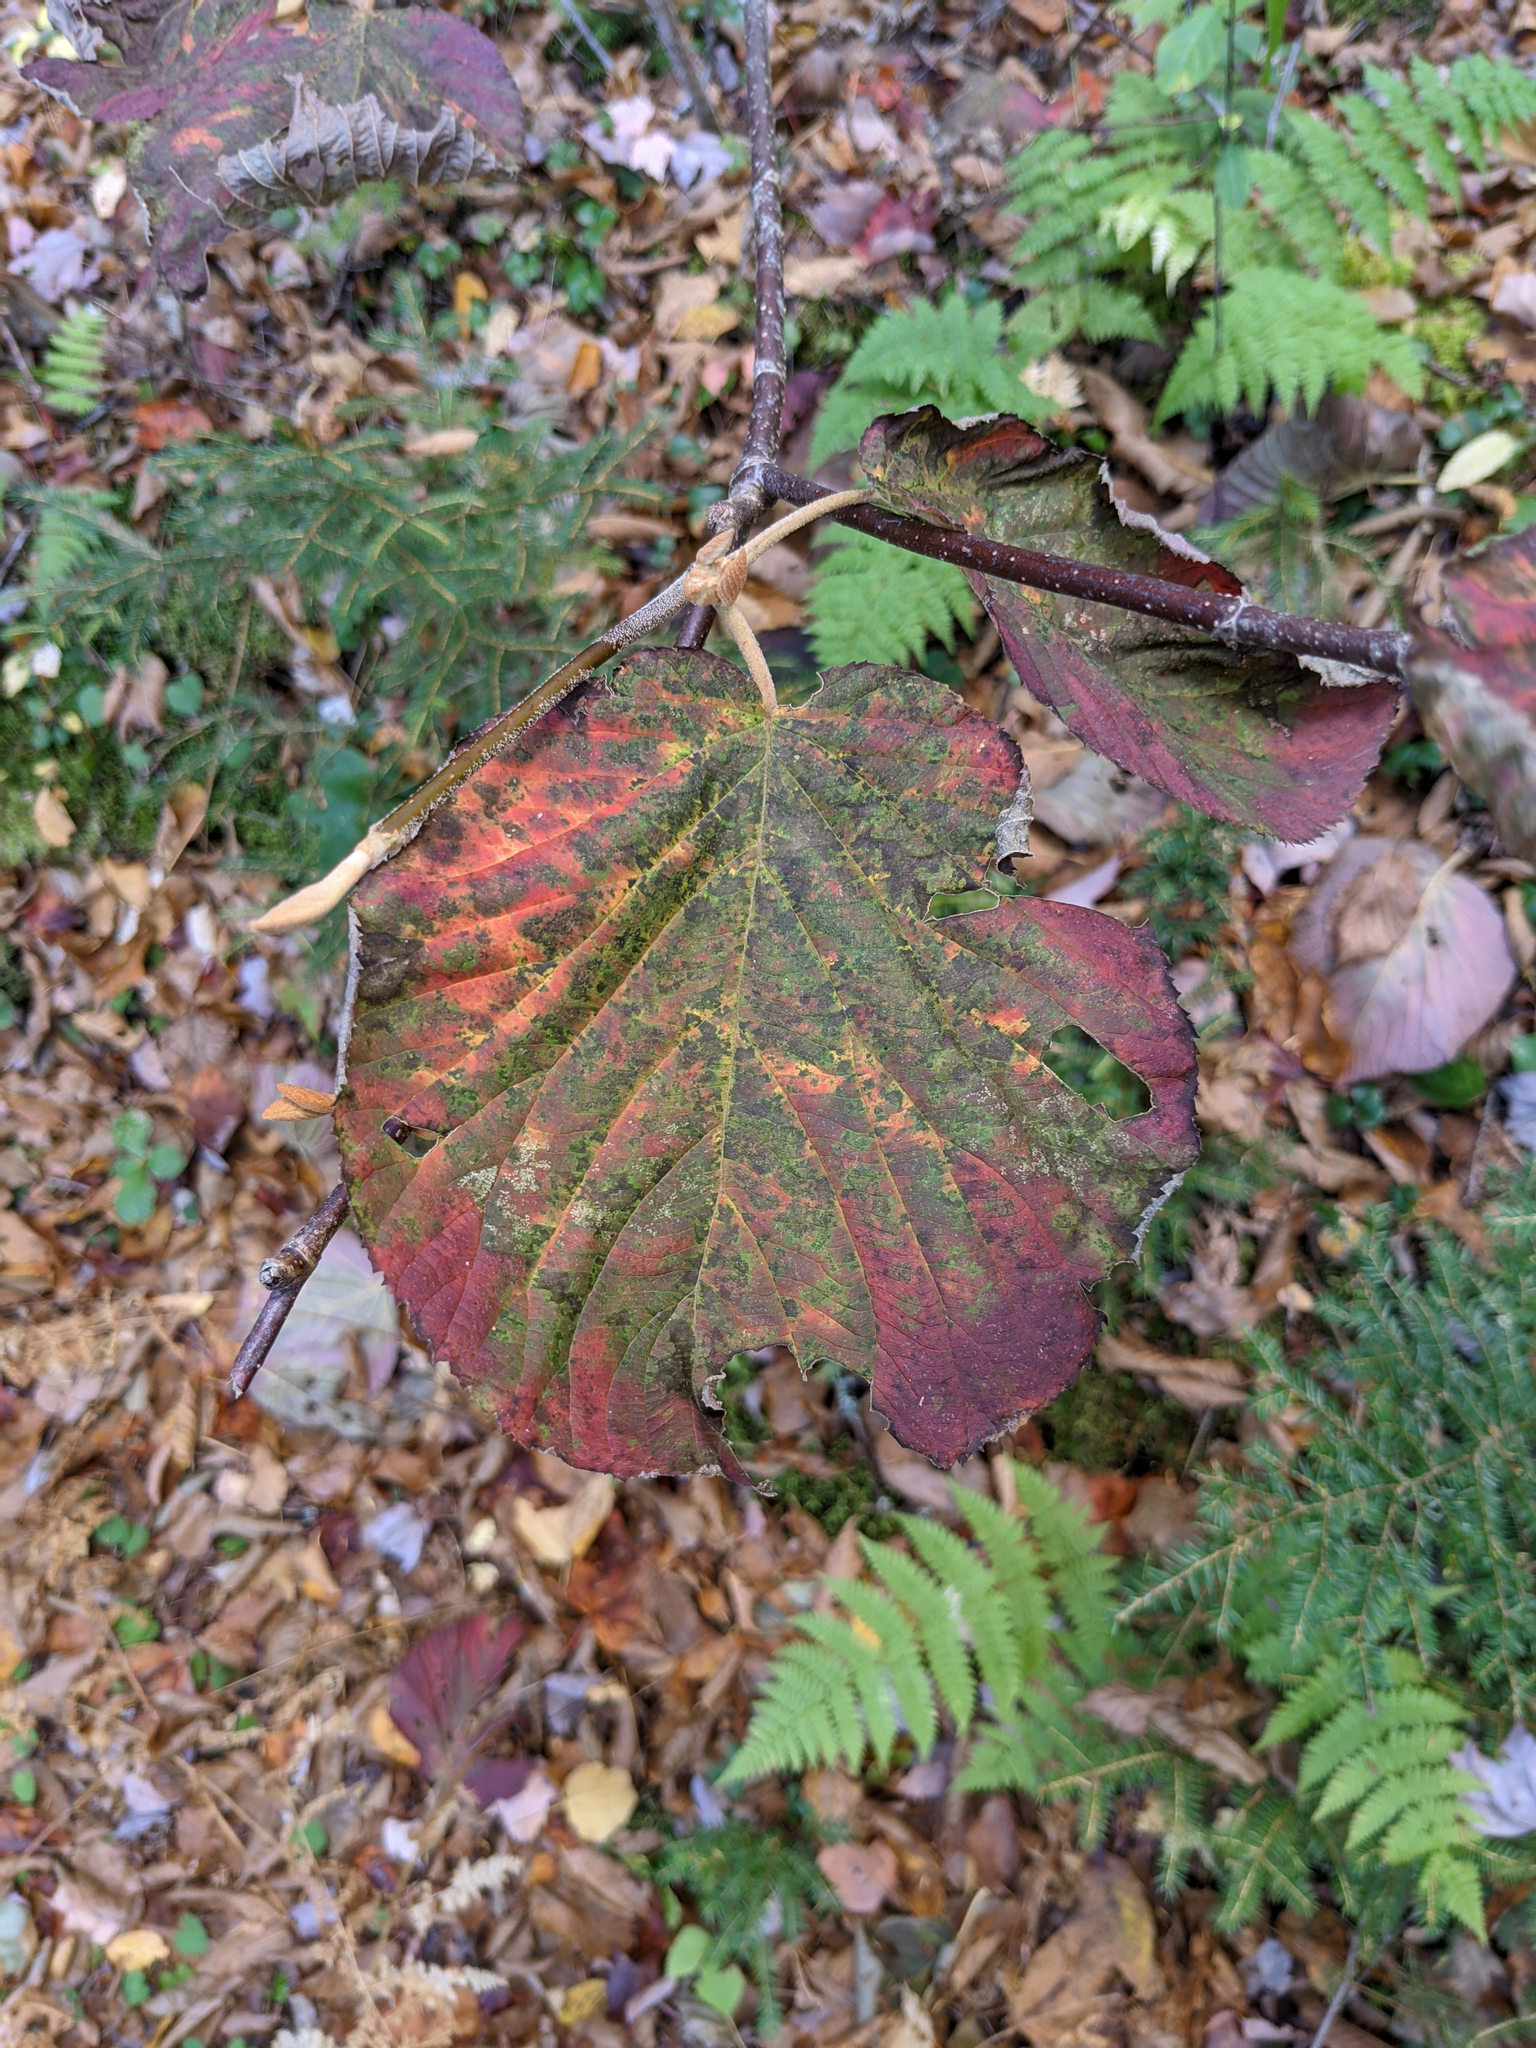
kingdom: Plantae
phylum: Tracheophyta
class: Magnoliopsida
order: Dipsacales
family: Viburnaceae
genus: Viburnum
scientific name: Viburnum lantanoides
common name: Hobblebush
